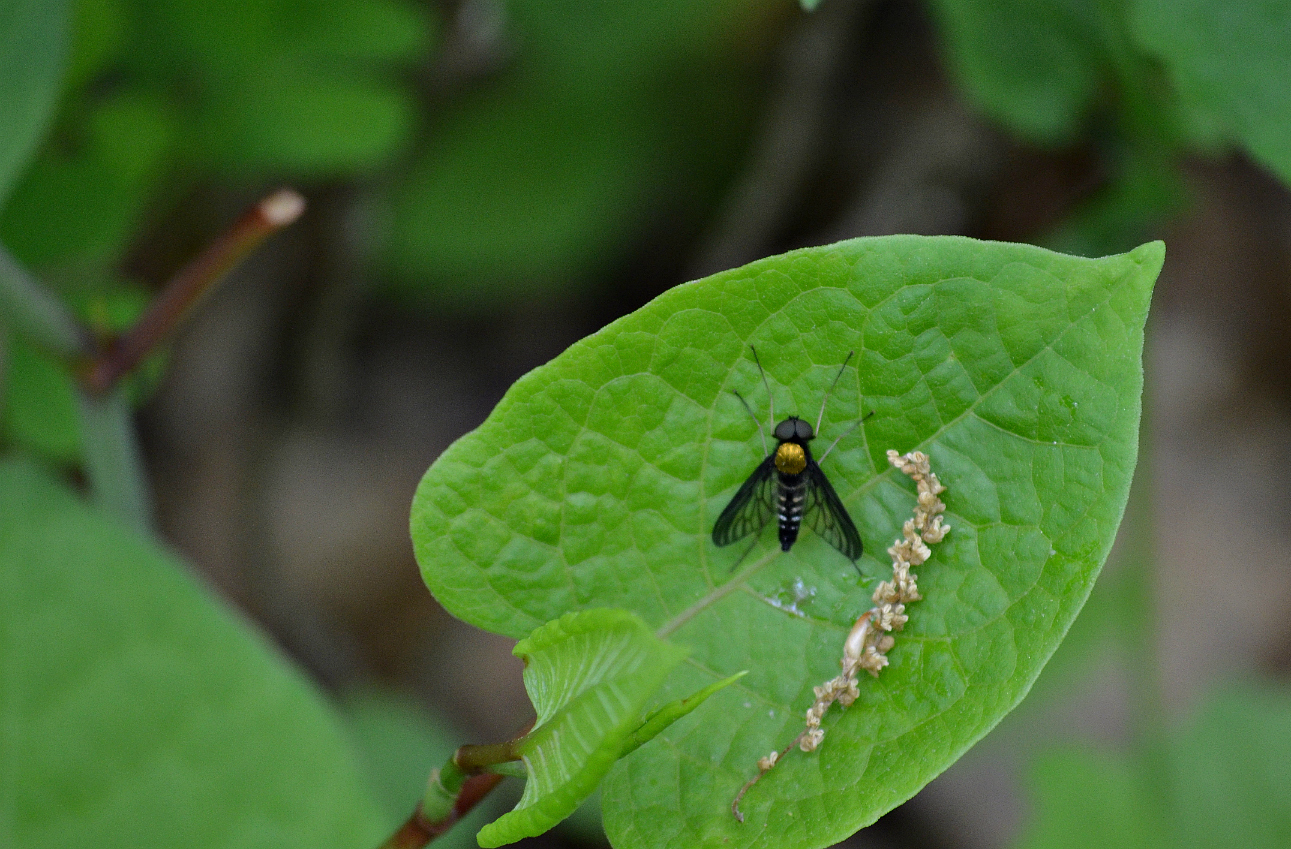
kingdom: Animalia
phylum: Arthropoda
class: Insecta
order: Diptera
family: Rhagionidae
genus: Chrysopilus
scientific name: Chrysopilus thoracicus
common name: Golden-backed snipe fly
